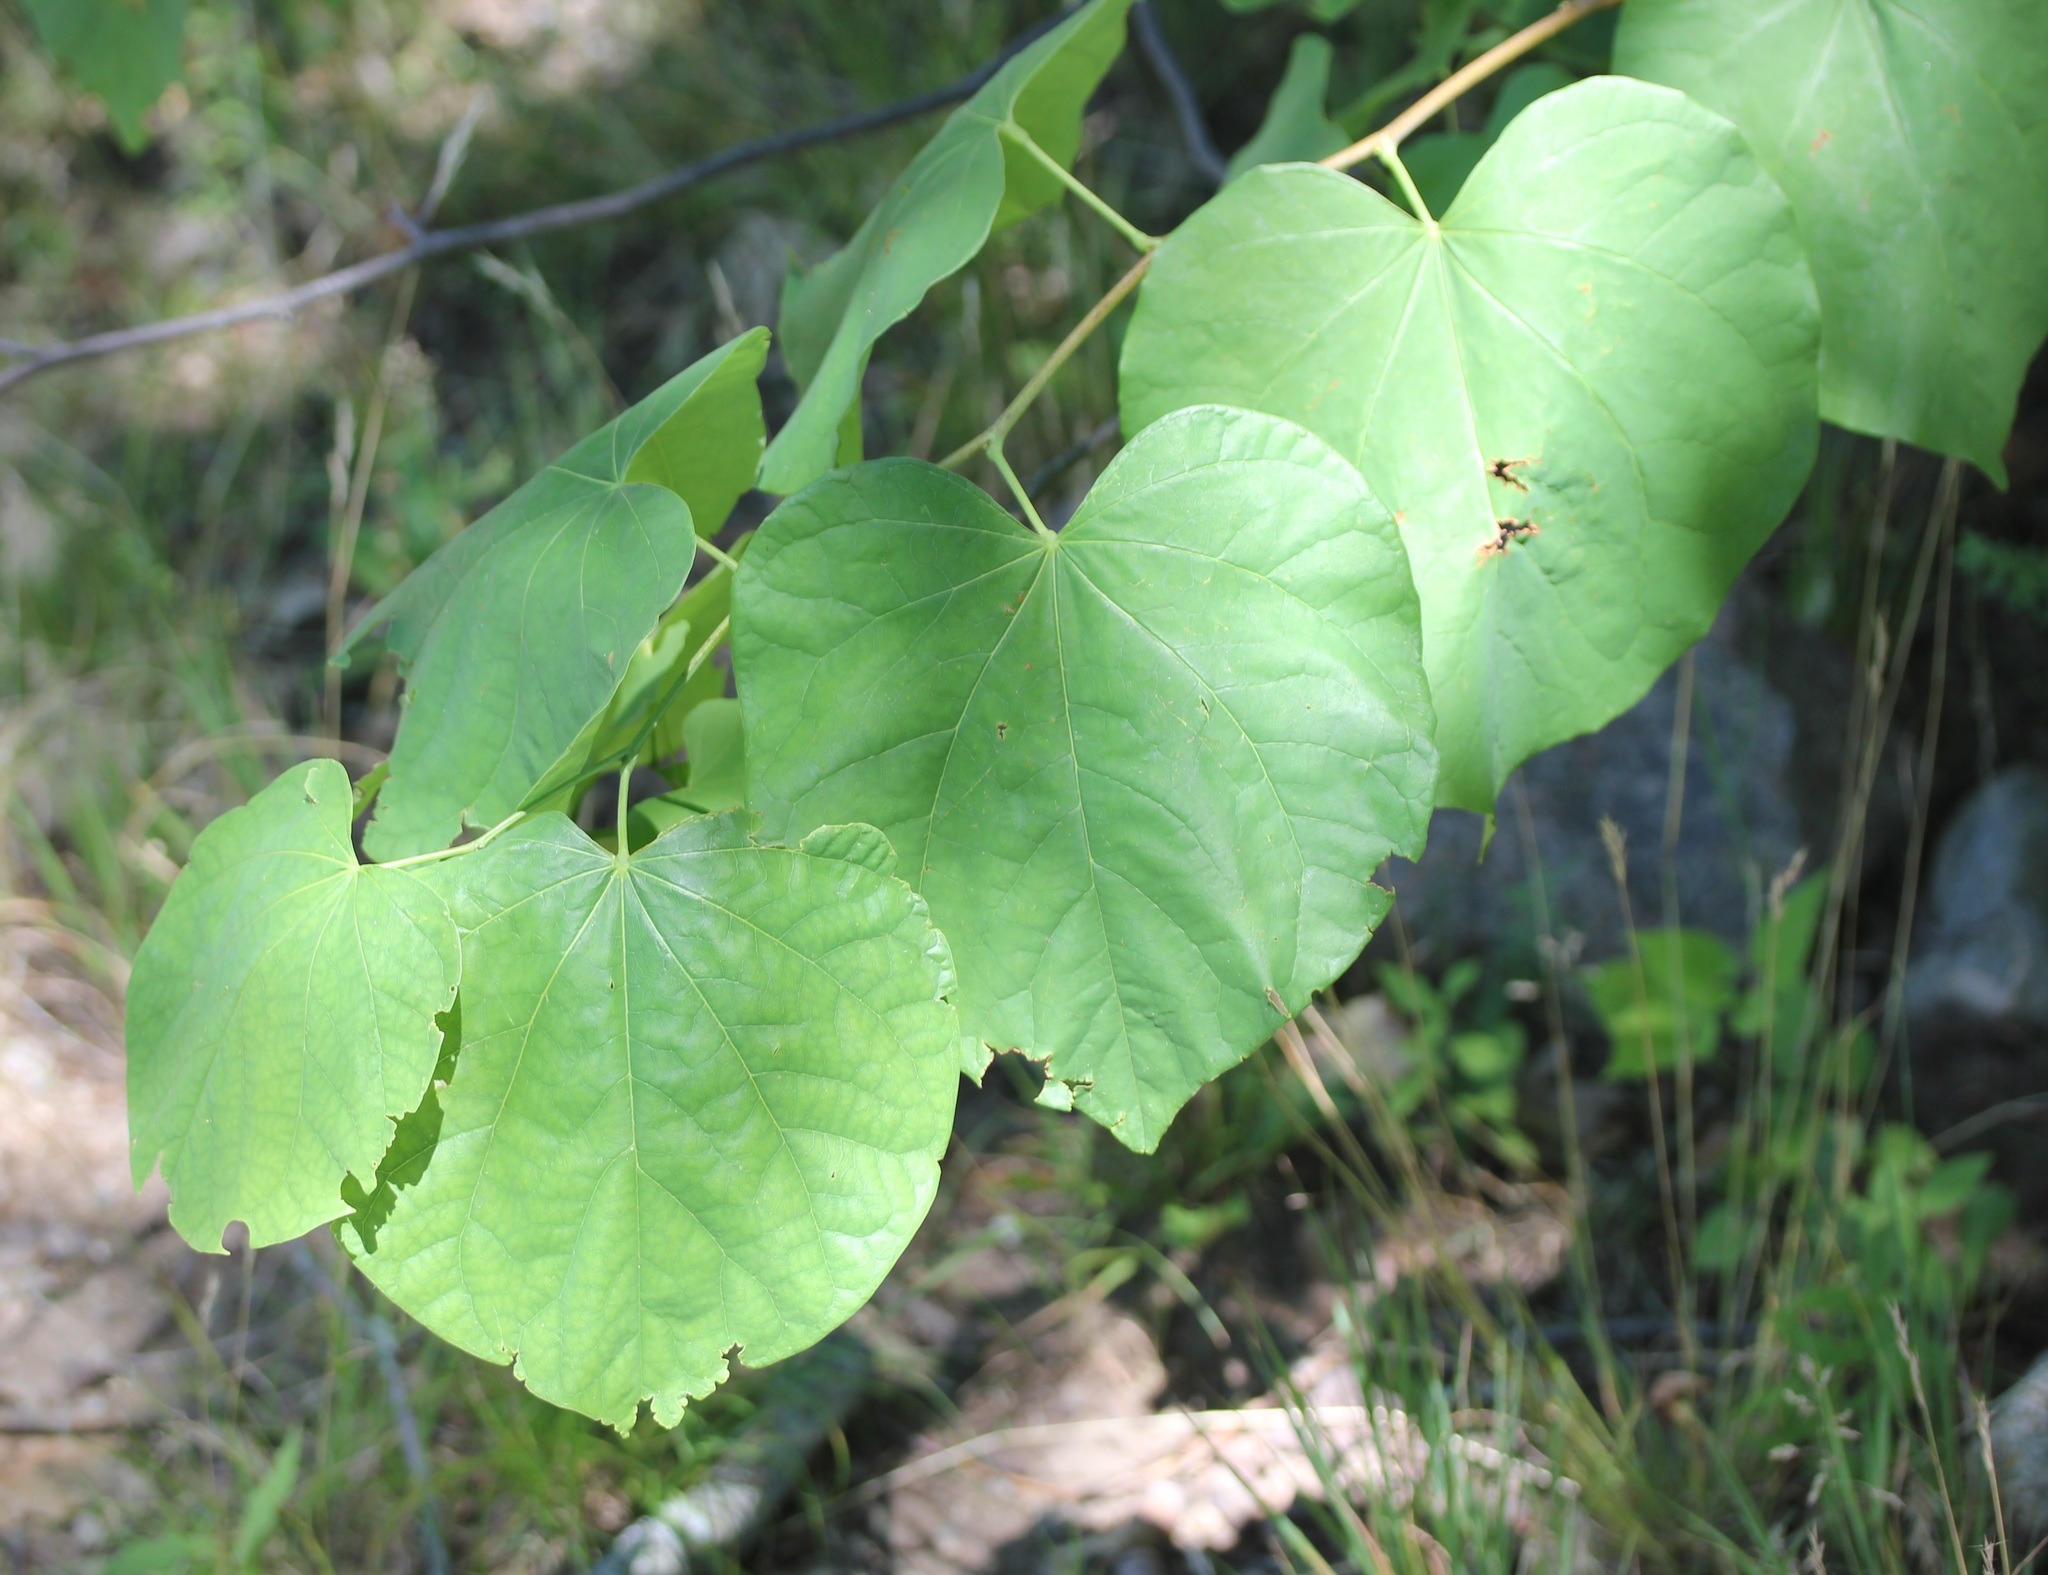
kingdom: Plantae
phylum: Tracheophyta
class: Magnoliopsida
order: Fabales
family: Fabaceae
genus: Cercis
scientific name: Cercis canadensis
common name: Eastern redbud
